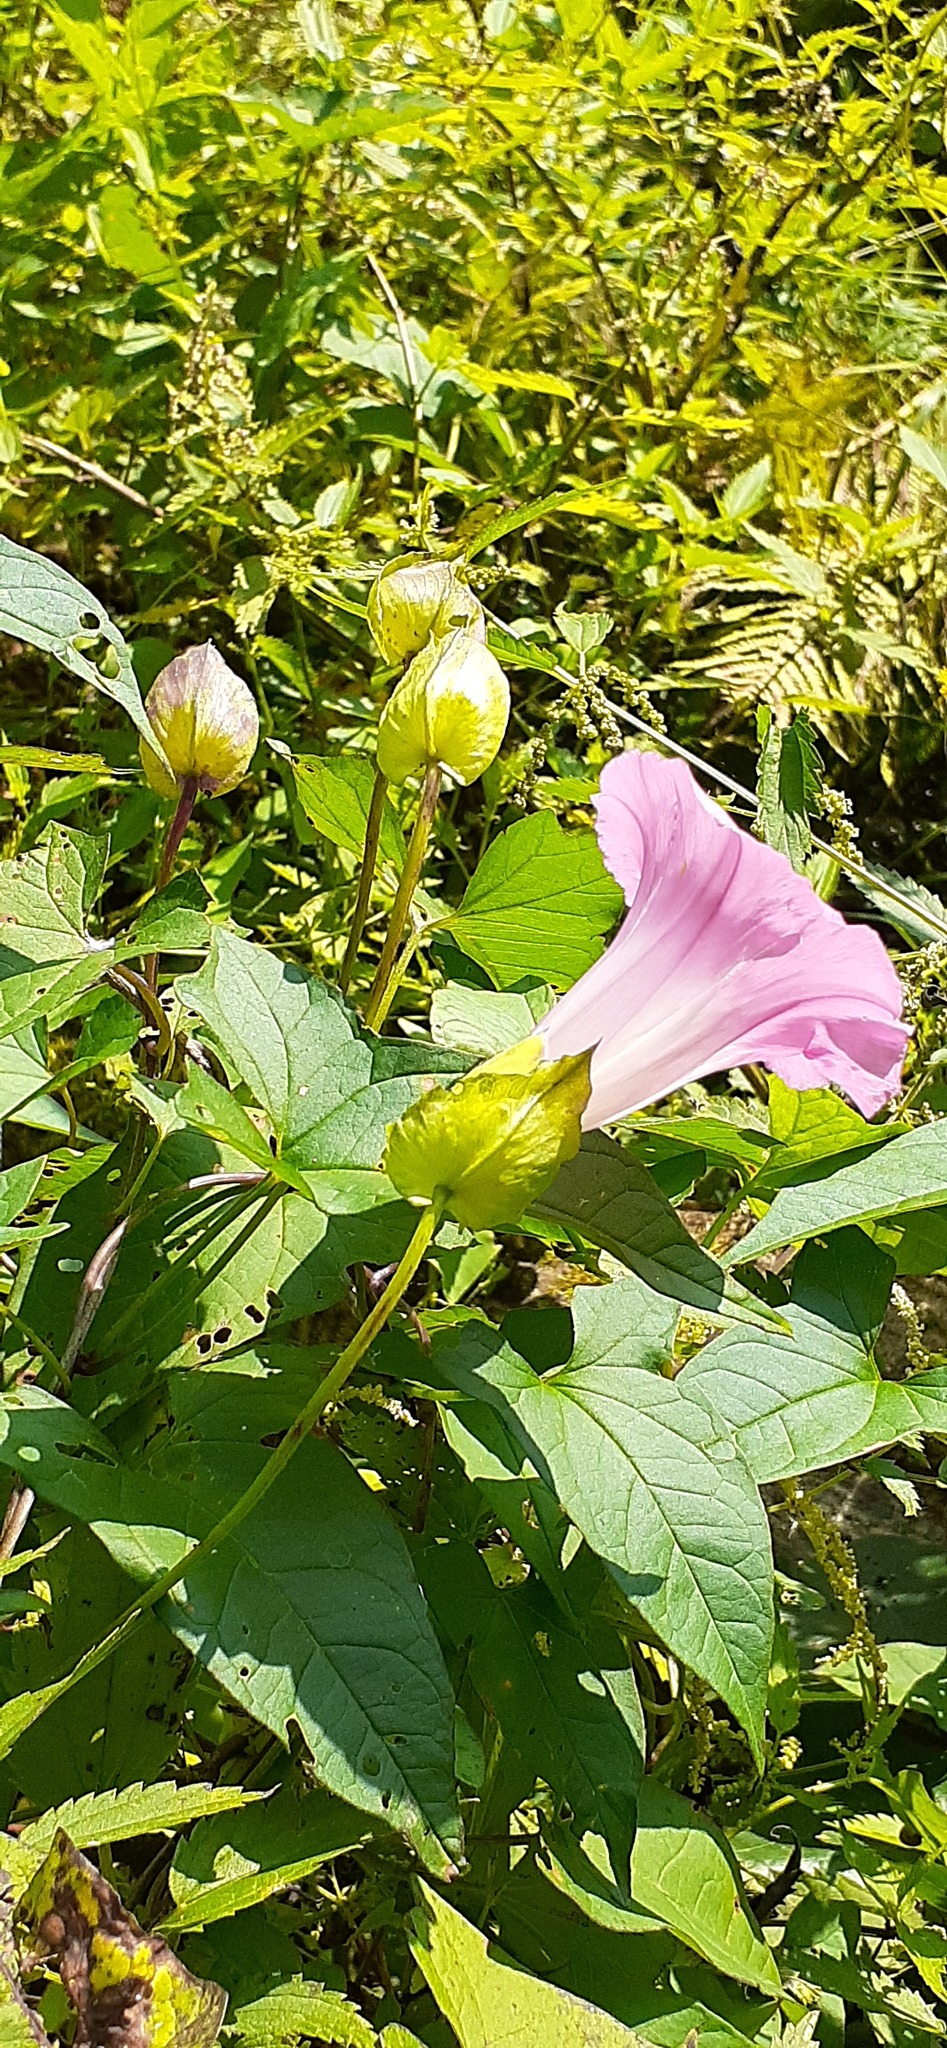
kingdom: Plantae
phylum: Tracheophyta
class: Magnoliopsida
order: Solanales
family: Convolvulaceae
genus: Calystegia
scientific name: Calystegia sepium
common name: Hedge bindweed
